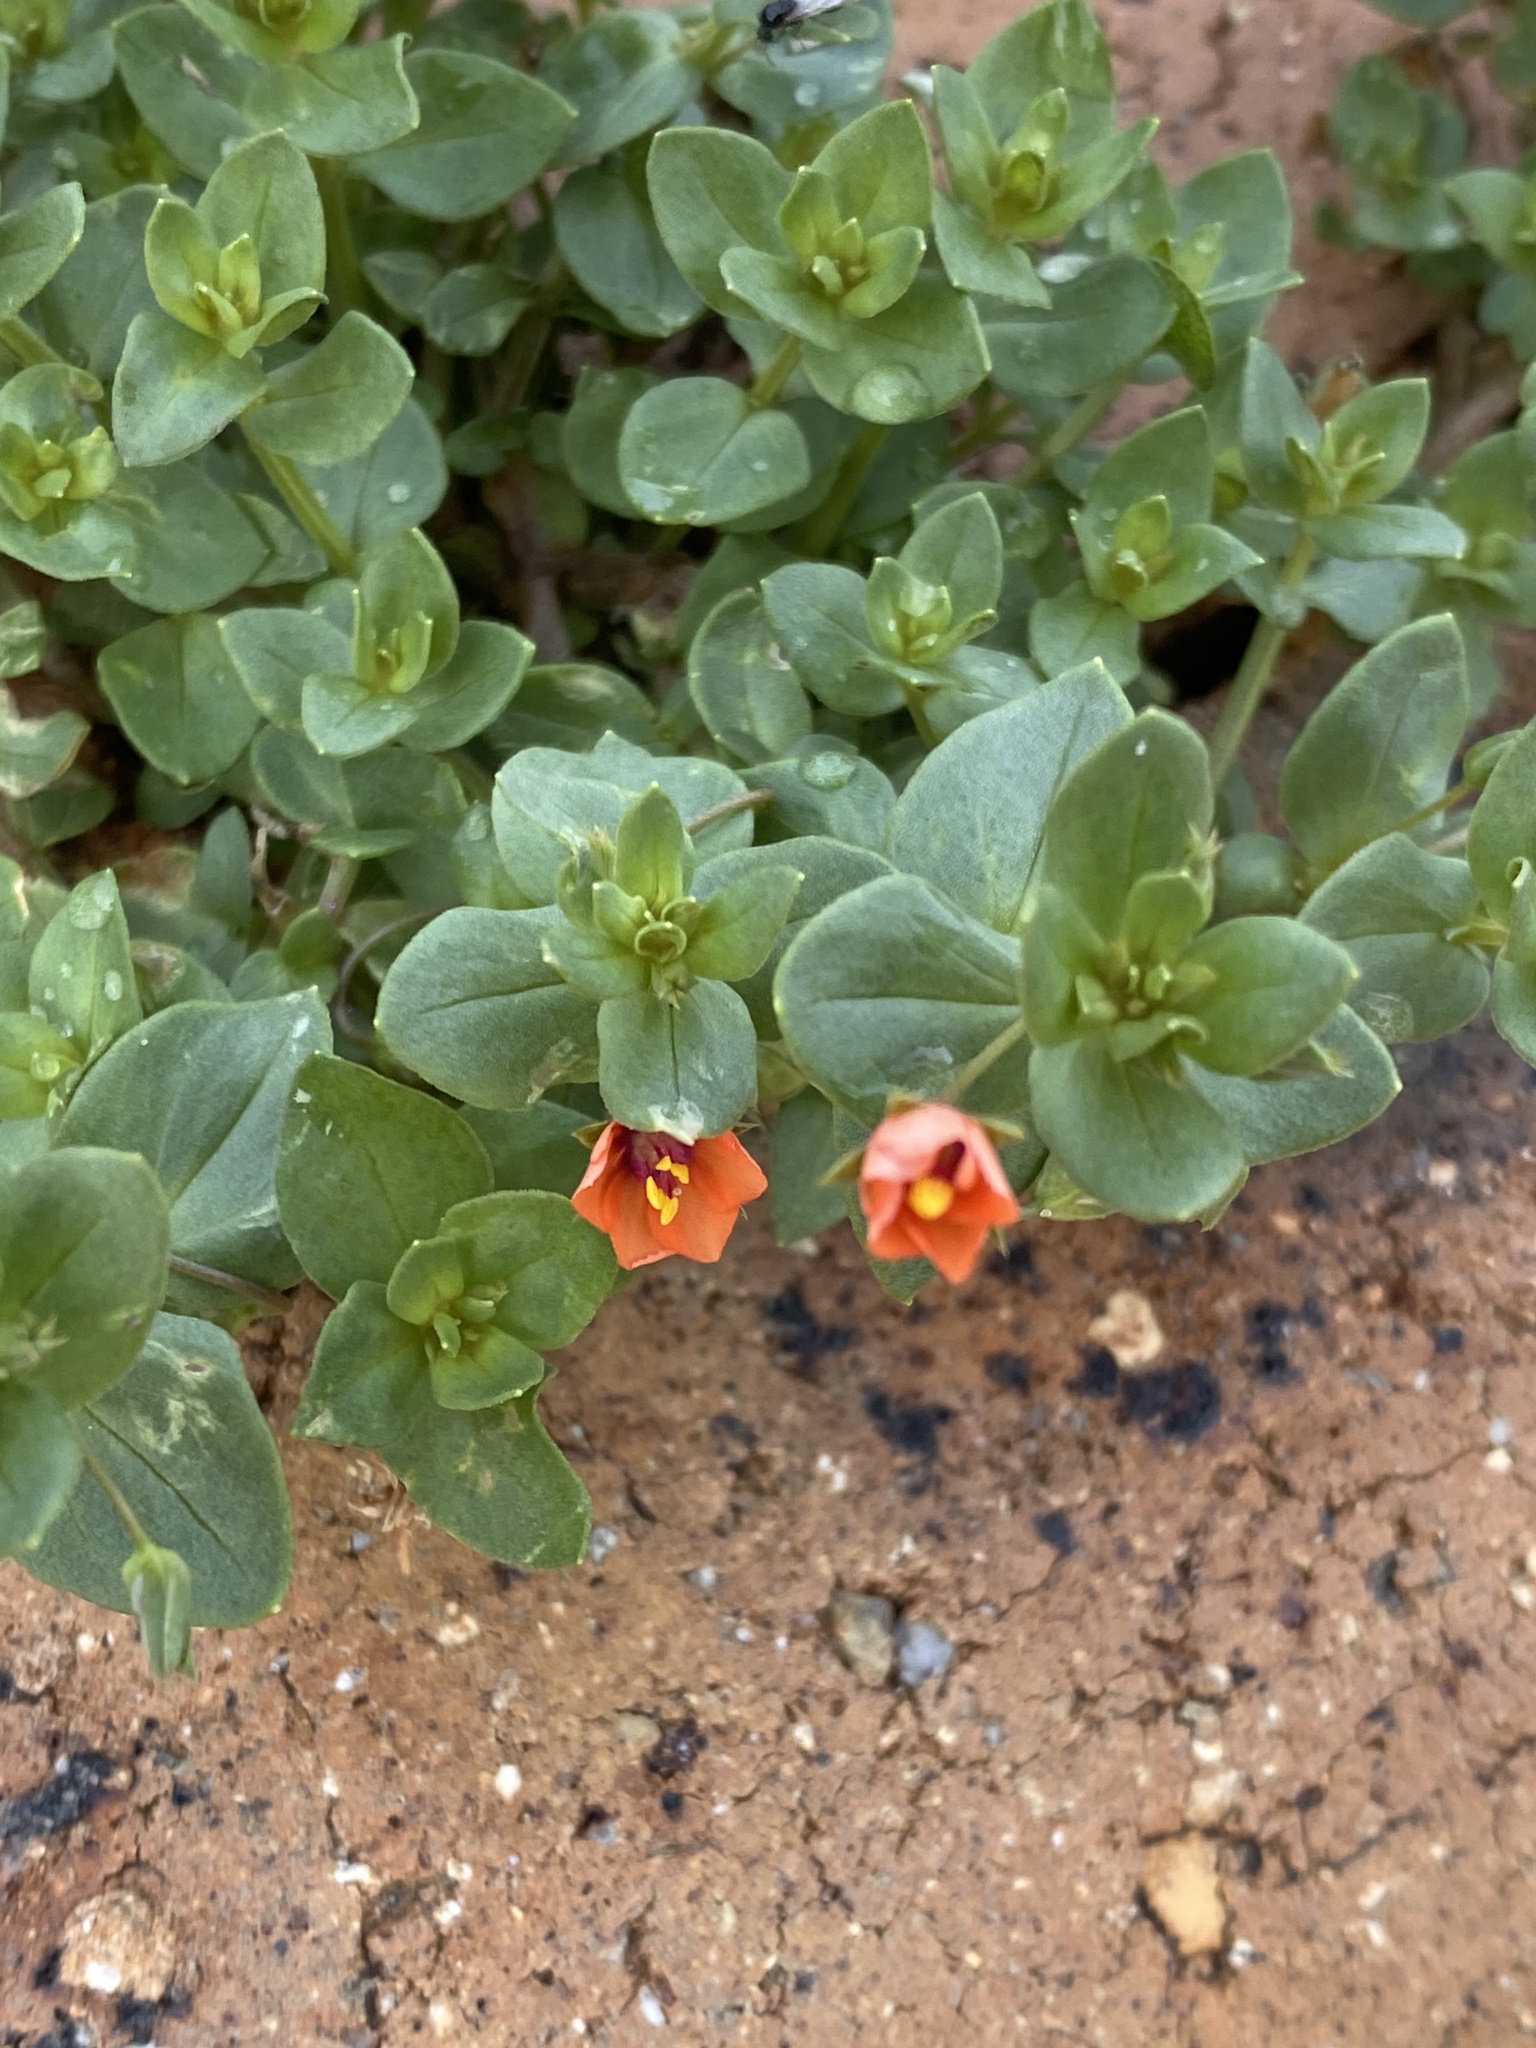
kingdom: Plantae
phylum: Tracheophyta
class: Magnoliopsida
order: Ericales
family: Primulaceae
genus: Lysimachia
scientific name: Lysimachia arvensis
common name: Scarlet pimpernel
